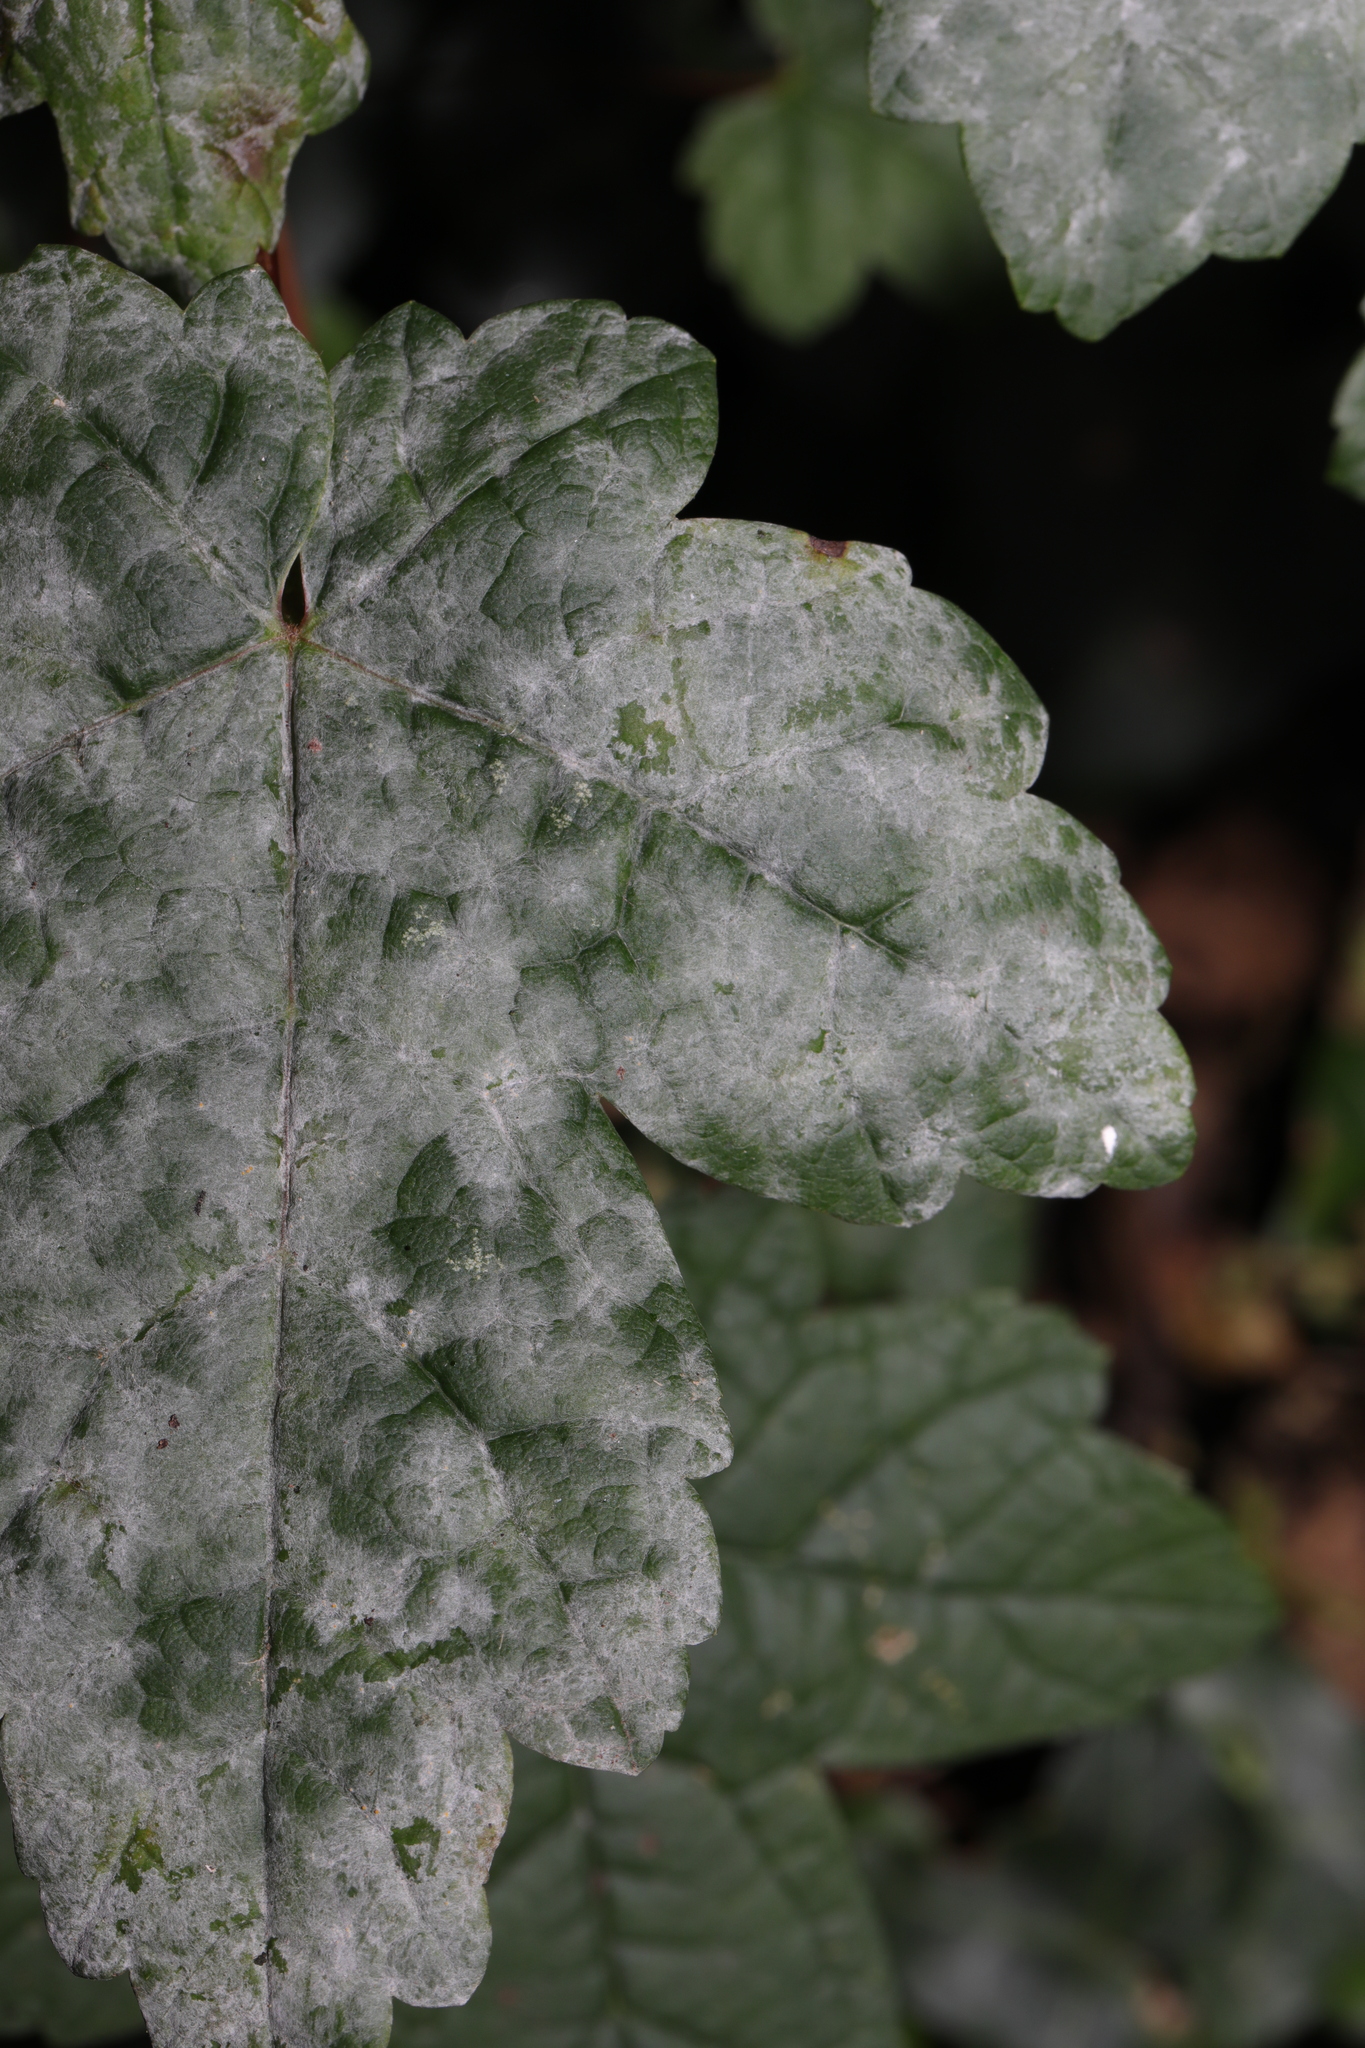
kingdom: Fungi
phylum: Ascomycota
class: Leotiomycetes
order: Helotiales
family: Erysiphaceae
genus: Sawadaea
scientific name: Sawadaea bicornis
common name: Maple mildew
